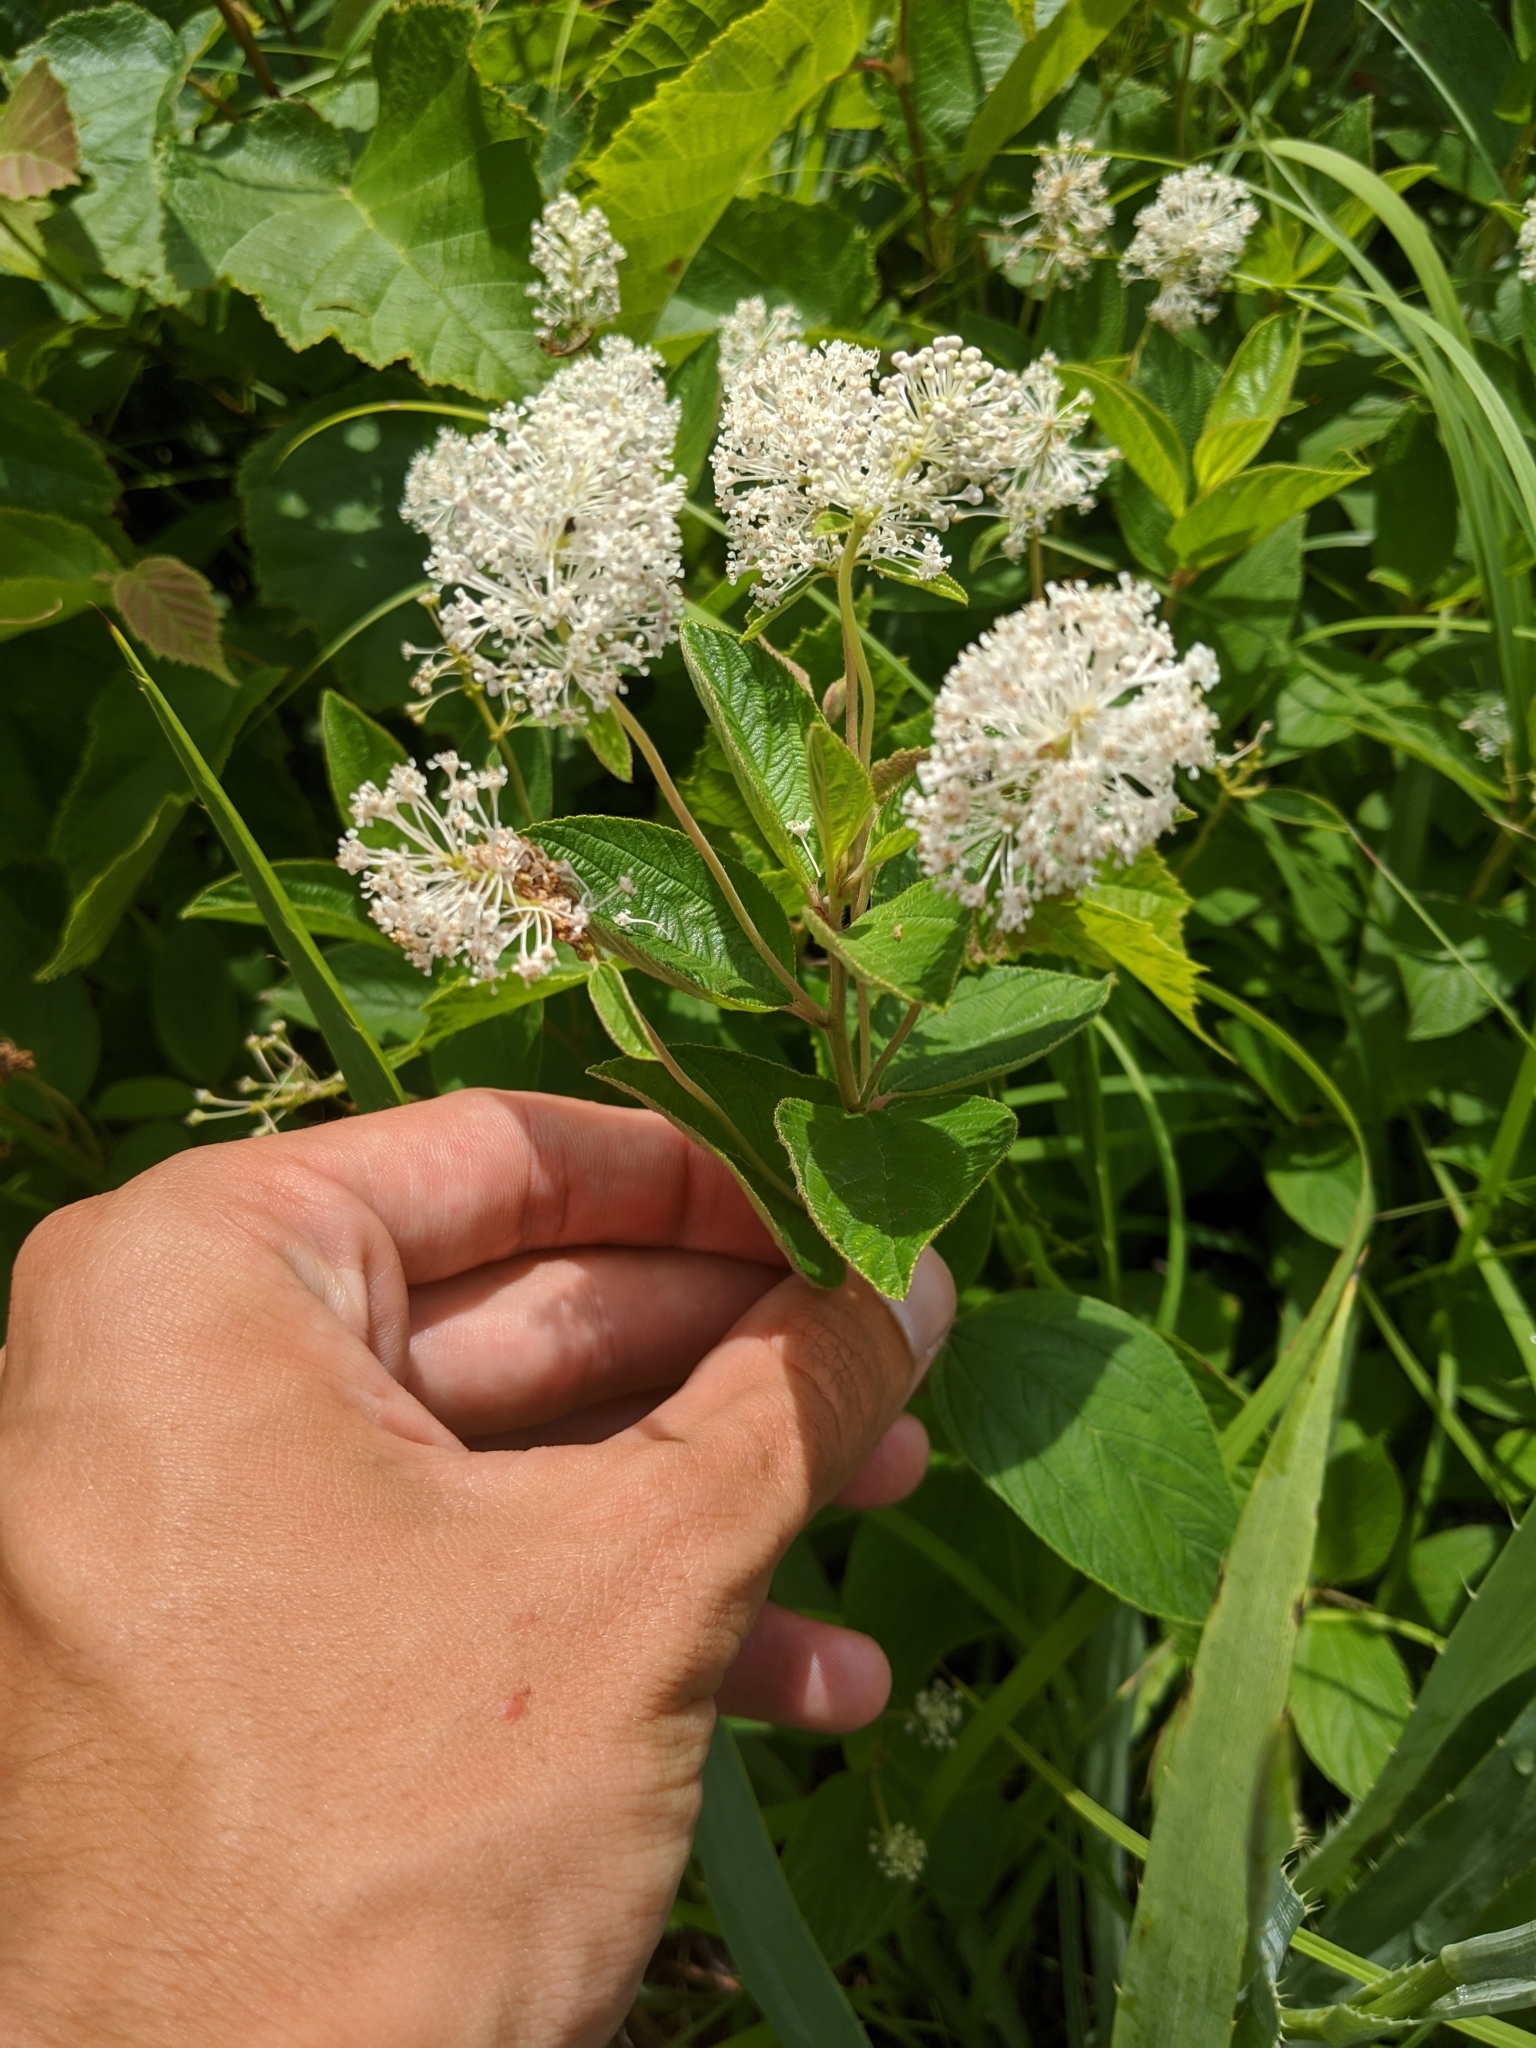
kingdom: Plantae
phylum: Tracheophyta
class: Magnoliopsida
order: Rosales
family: Rhamnaceae
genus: Ceanothus
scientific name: Ceanothus americanus
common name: Redroot
